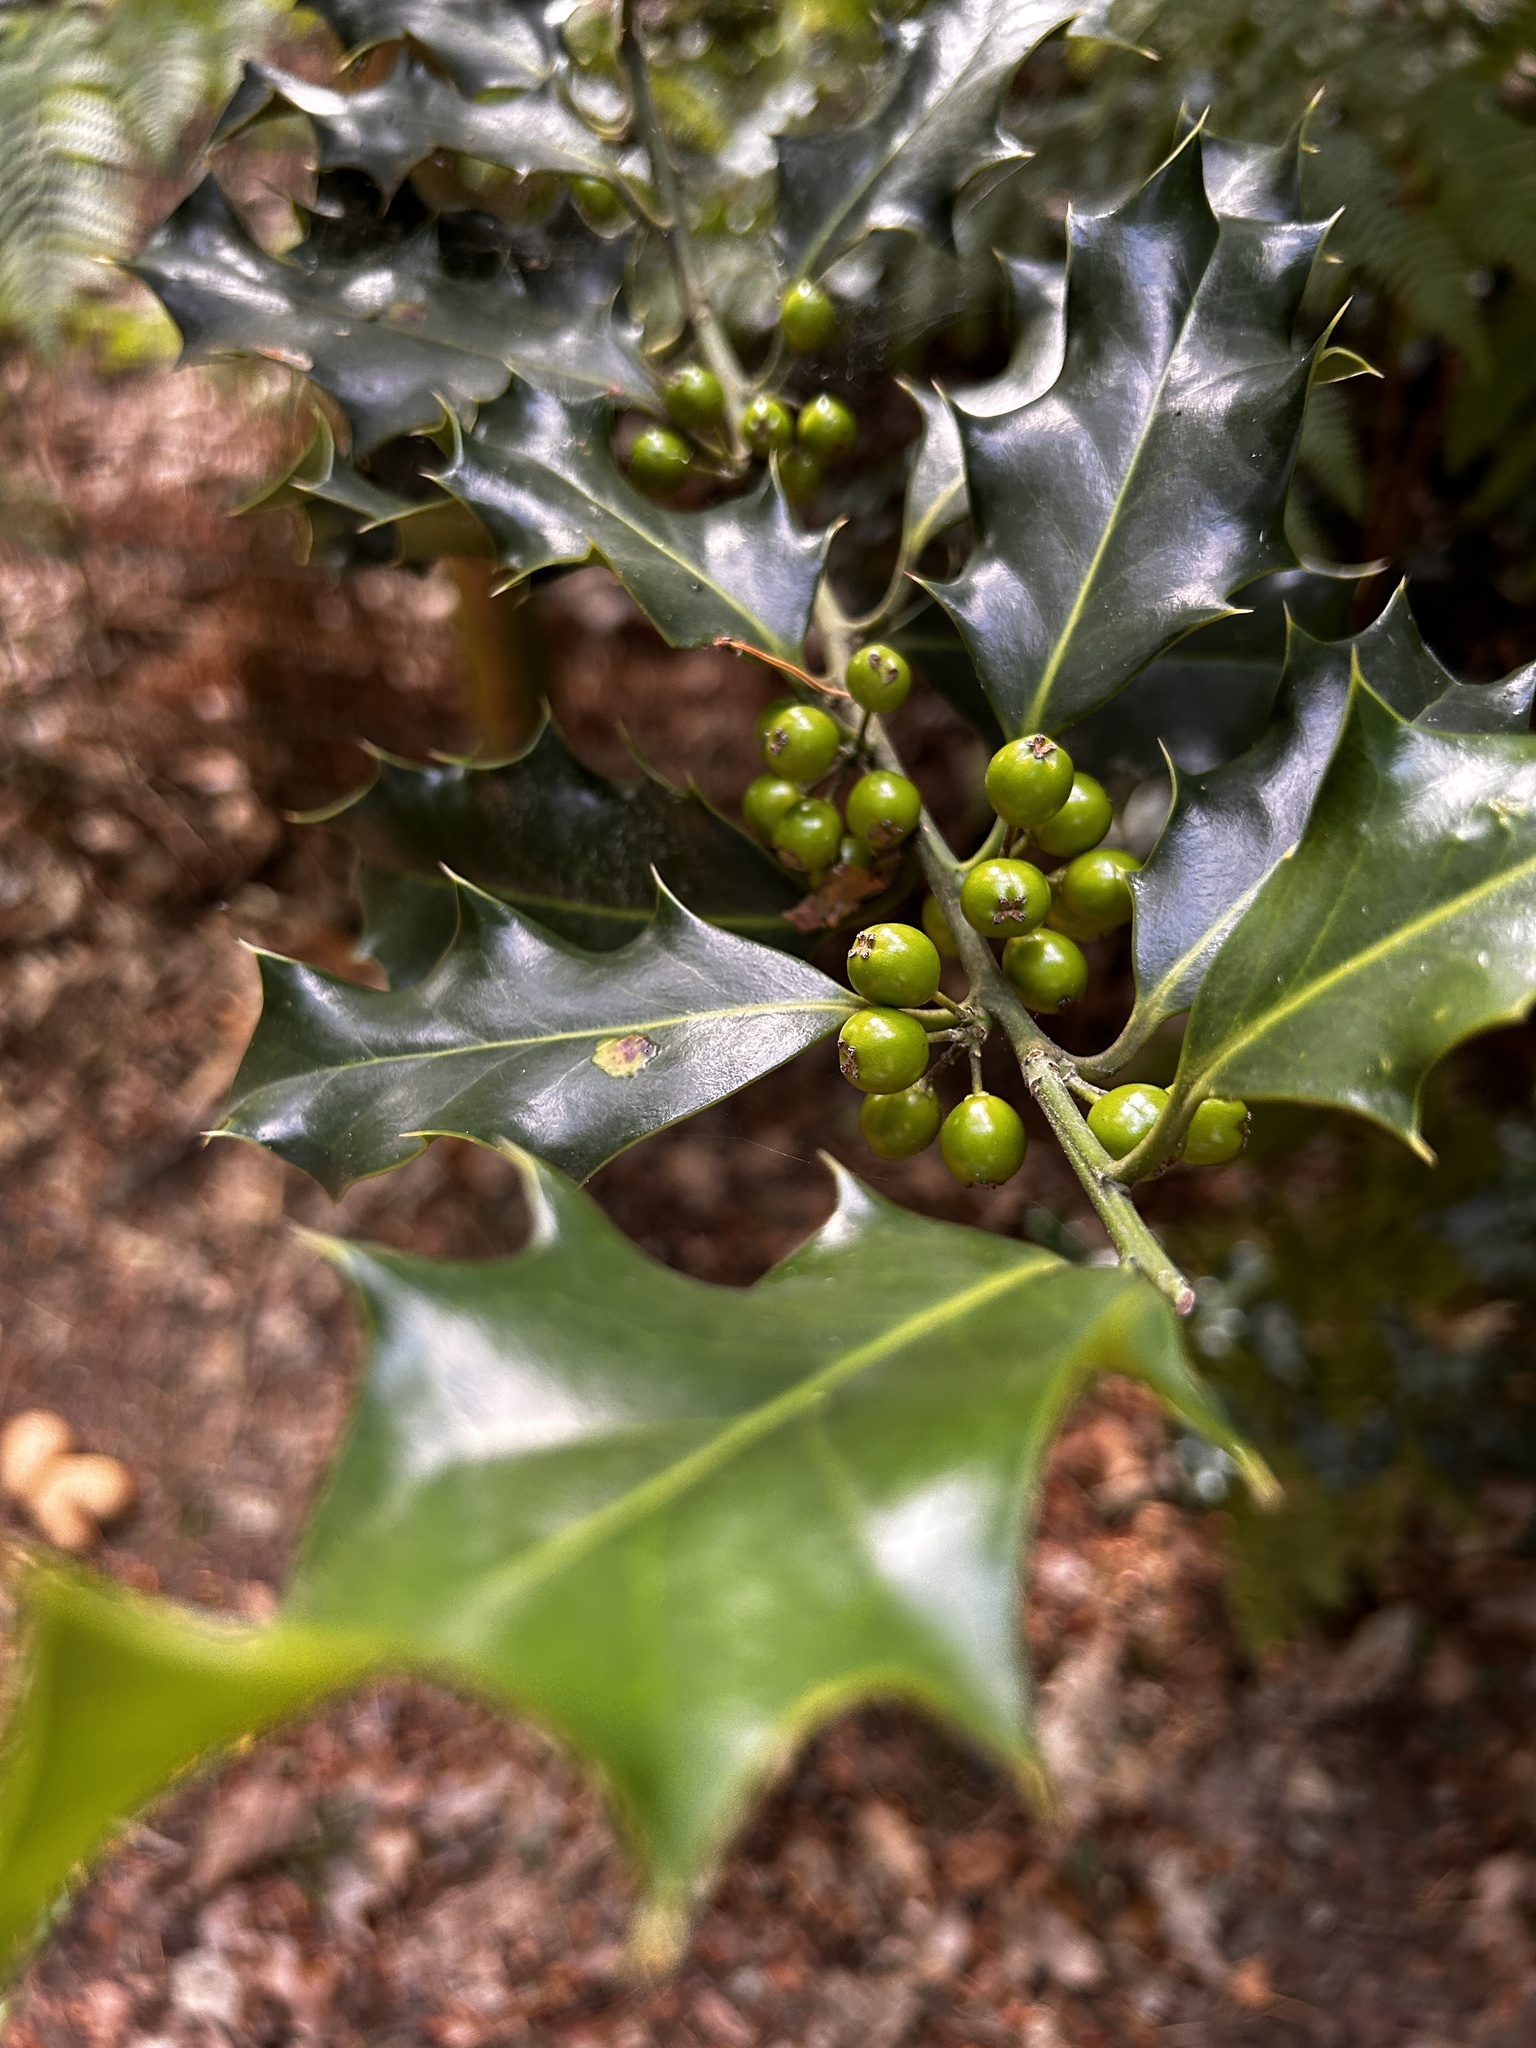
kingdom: Plantae
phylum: Tracheophyta
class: Magnoliopsida
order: Aquifoliales
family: Aquifoliaceae
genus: Ilex
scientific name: Ilex aquifolium
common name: English holly
